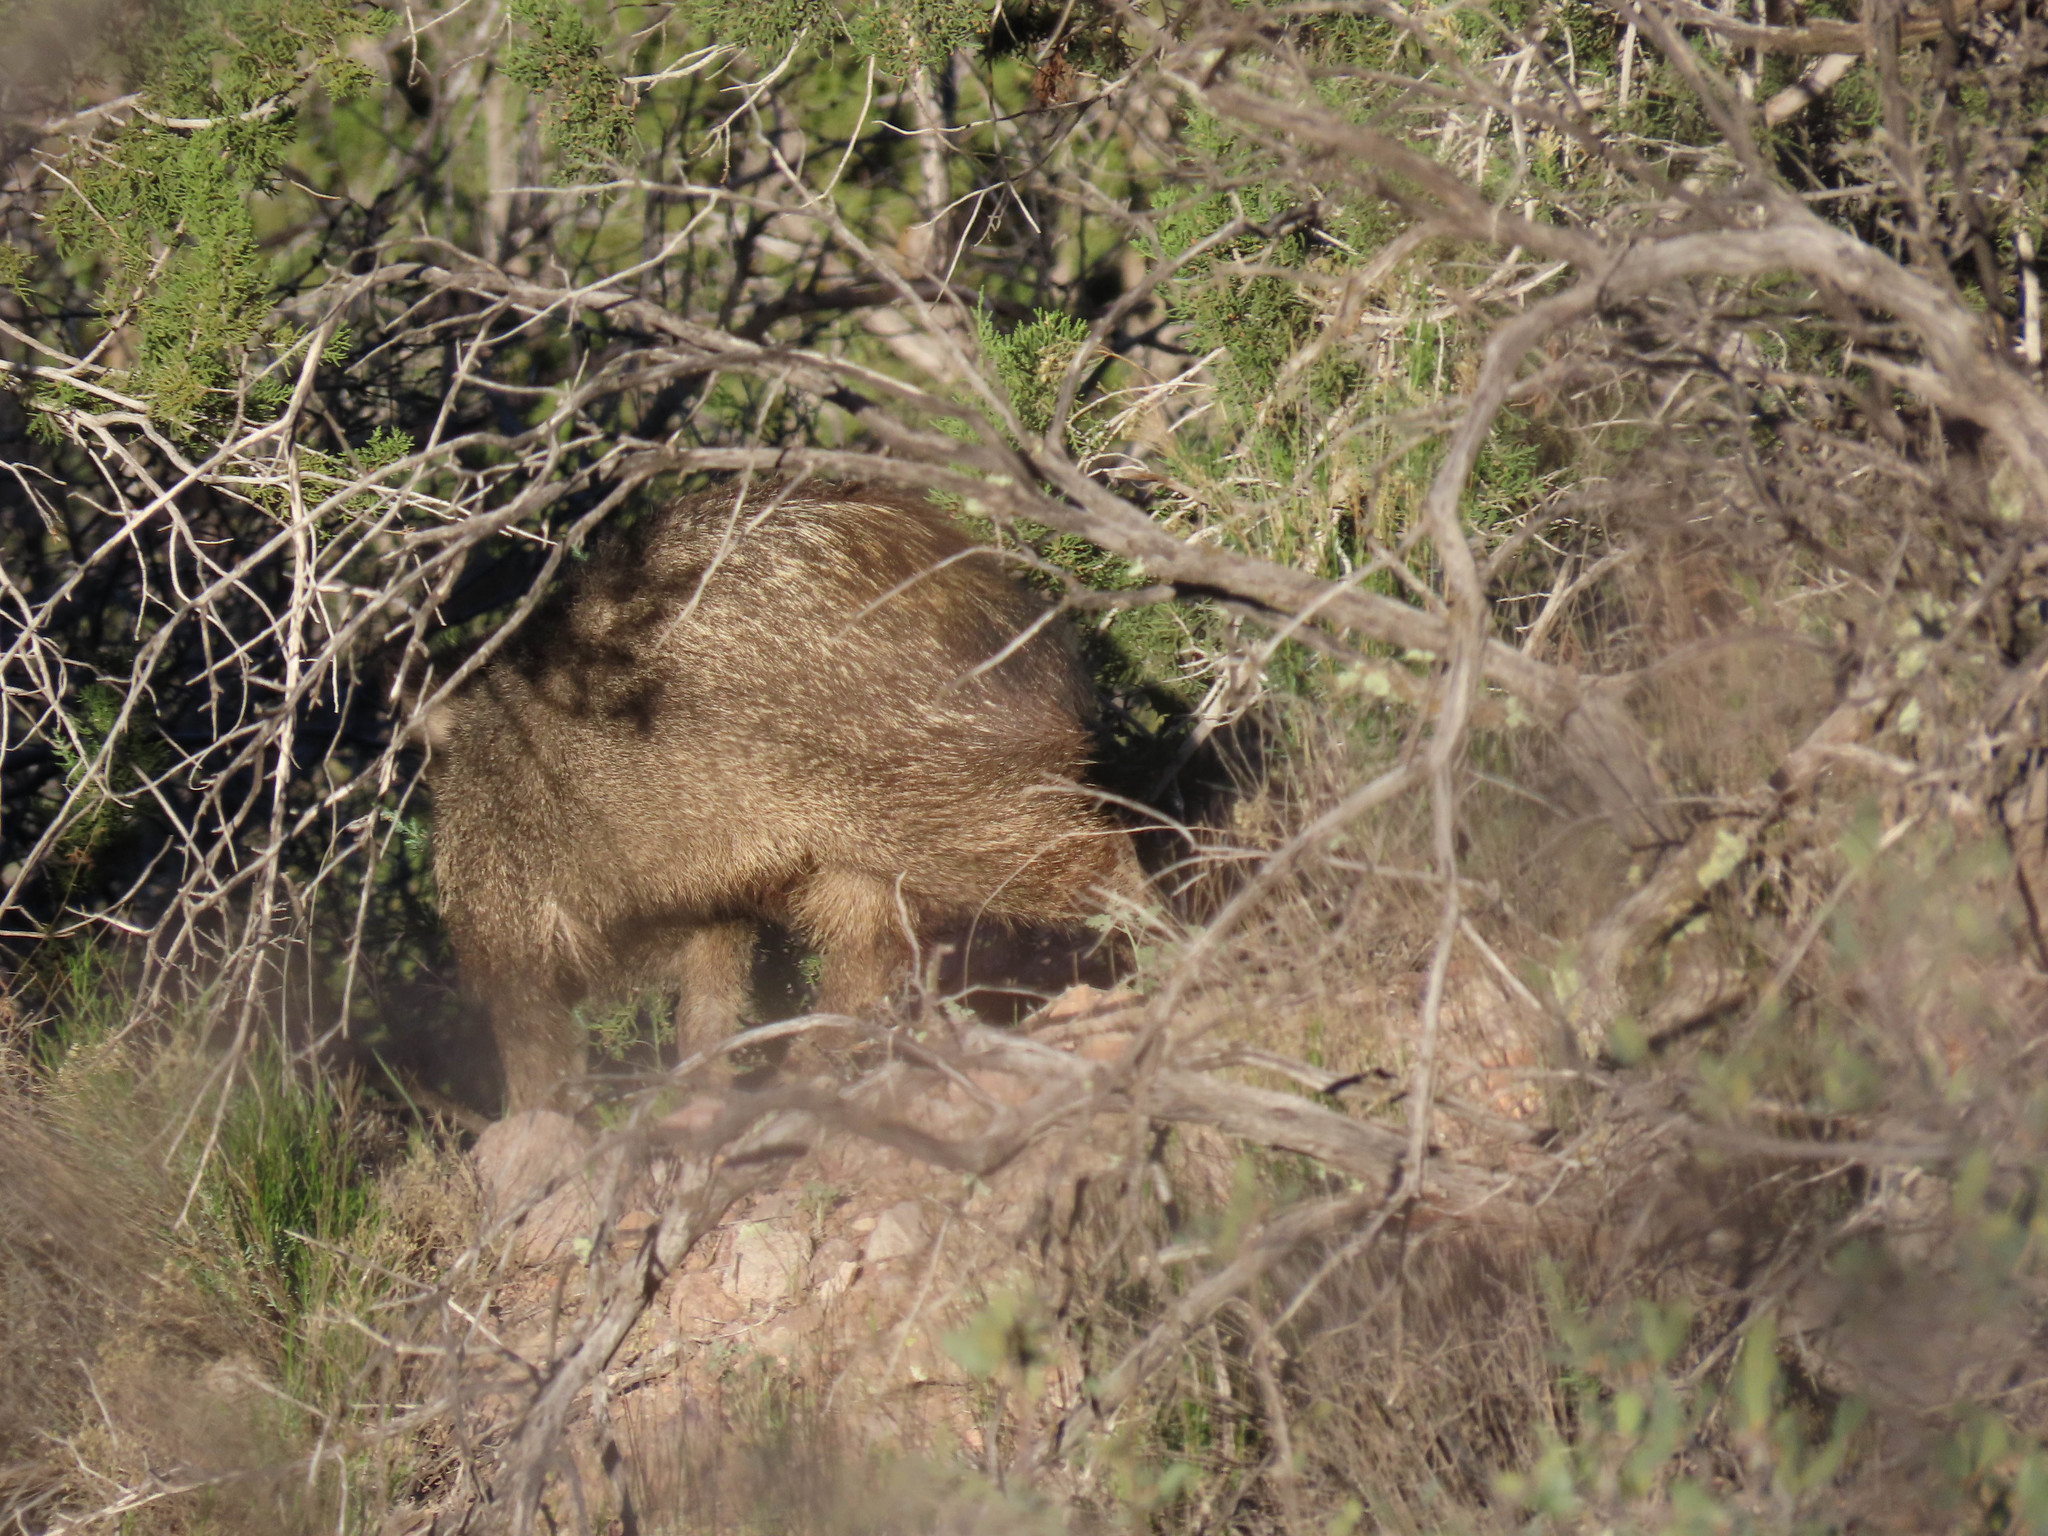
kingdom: Animalia
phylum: Chordata
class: Mammalia
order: Artiodactyla
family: Tayassuidae
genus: Pecari
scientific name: Pecari tajacu
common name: Collared peccary
